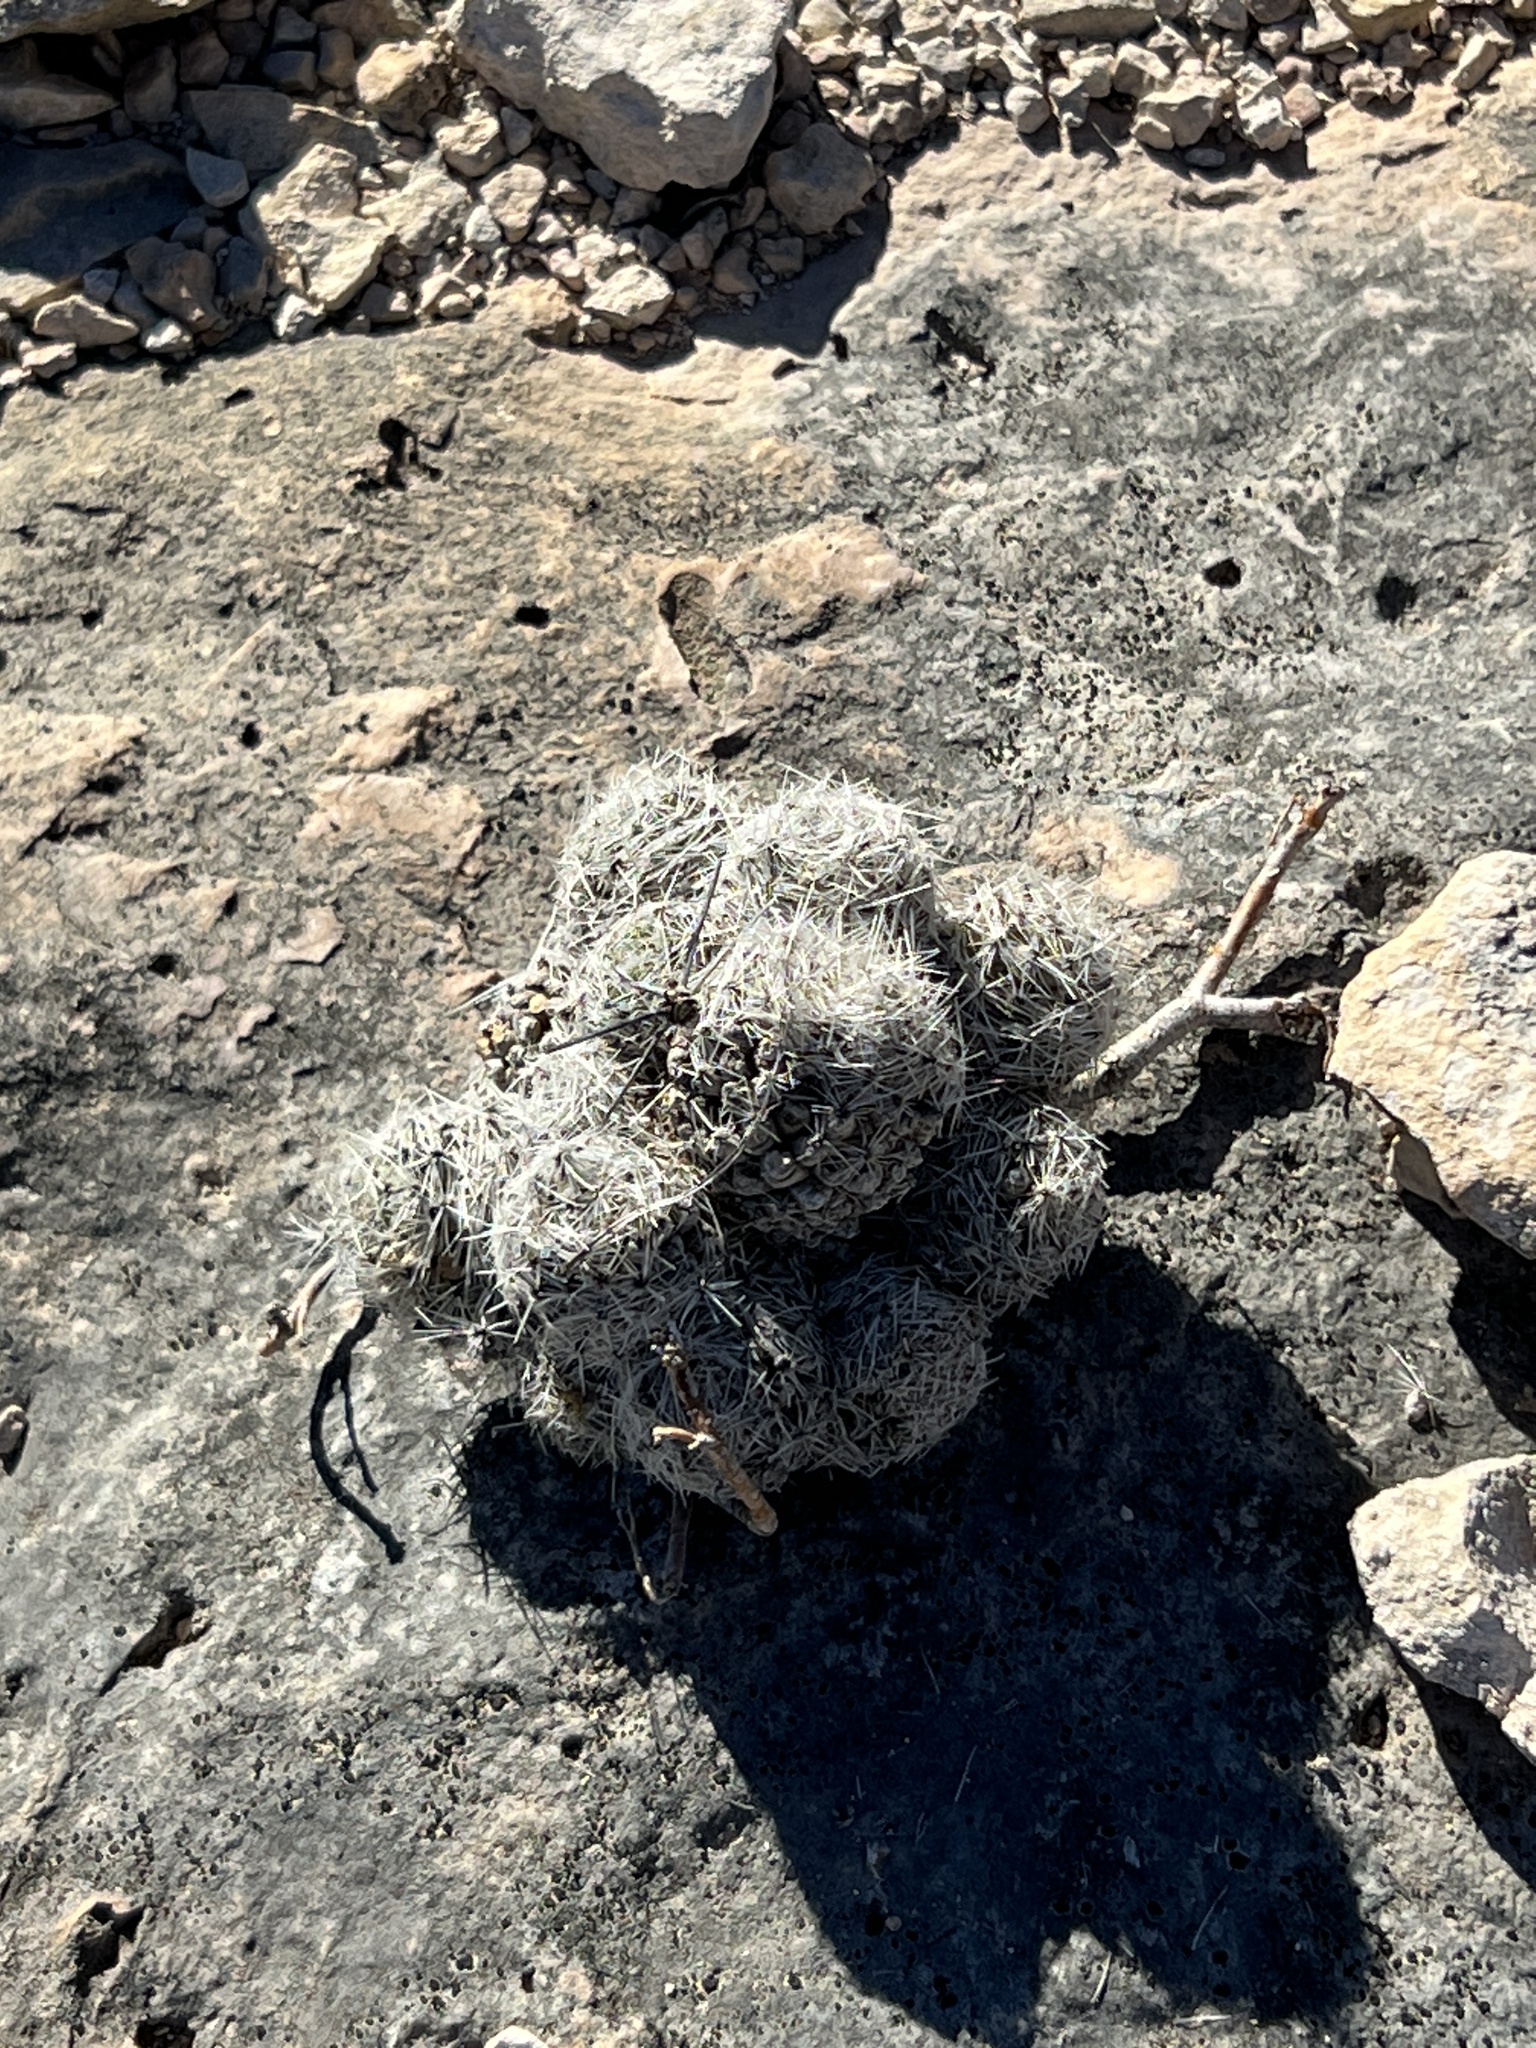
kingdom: Plantae
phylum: Tracheophyta
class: Magnoliopsida
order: Caryophyllales
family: Cactaceae
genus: Pelecyphora
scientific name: Pelecyphora tuberculosa
